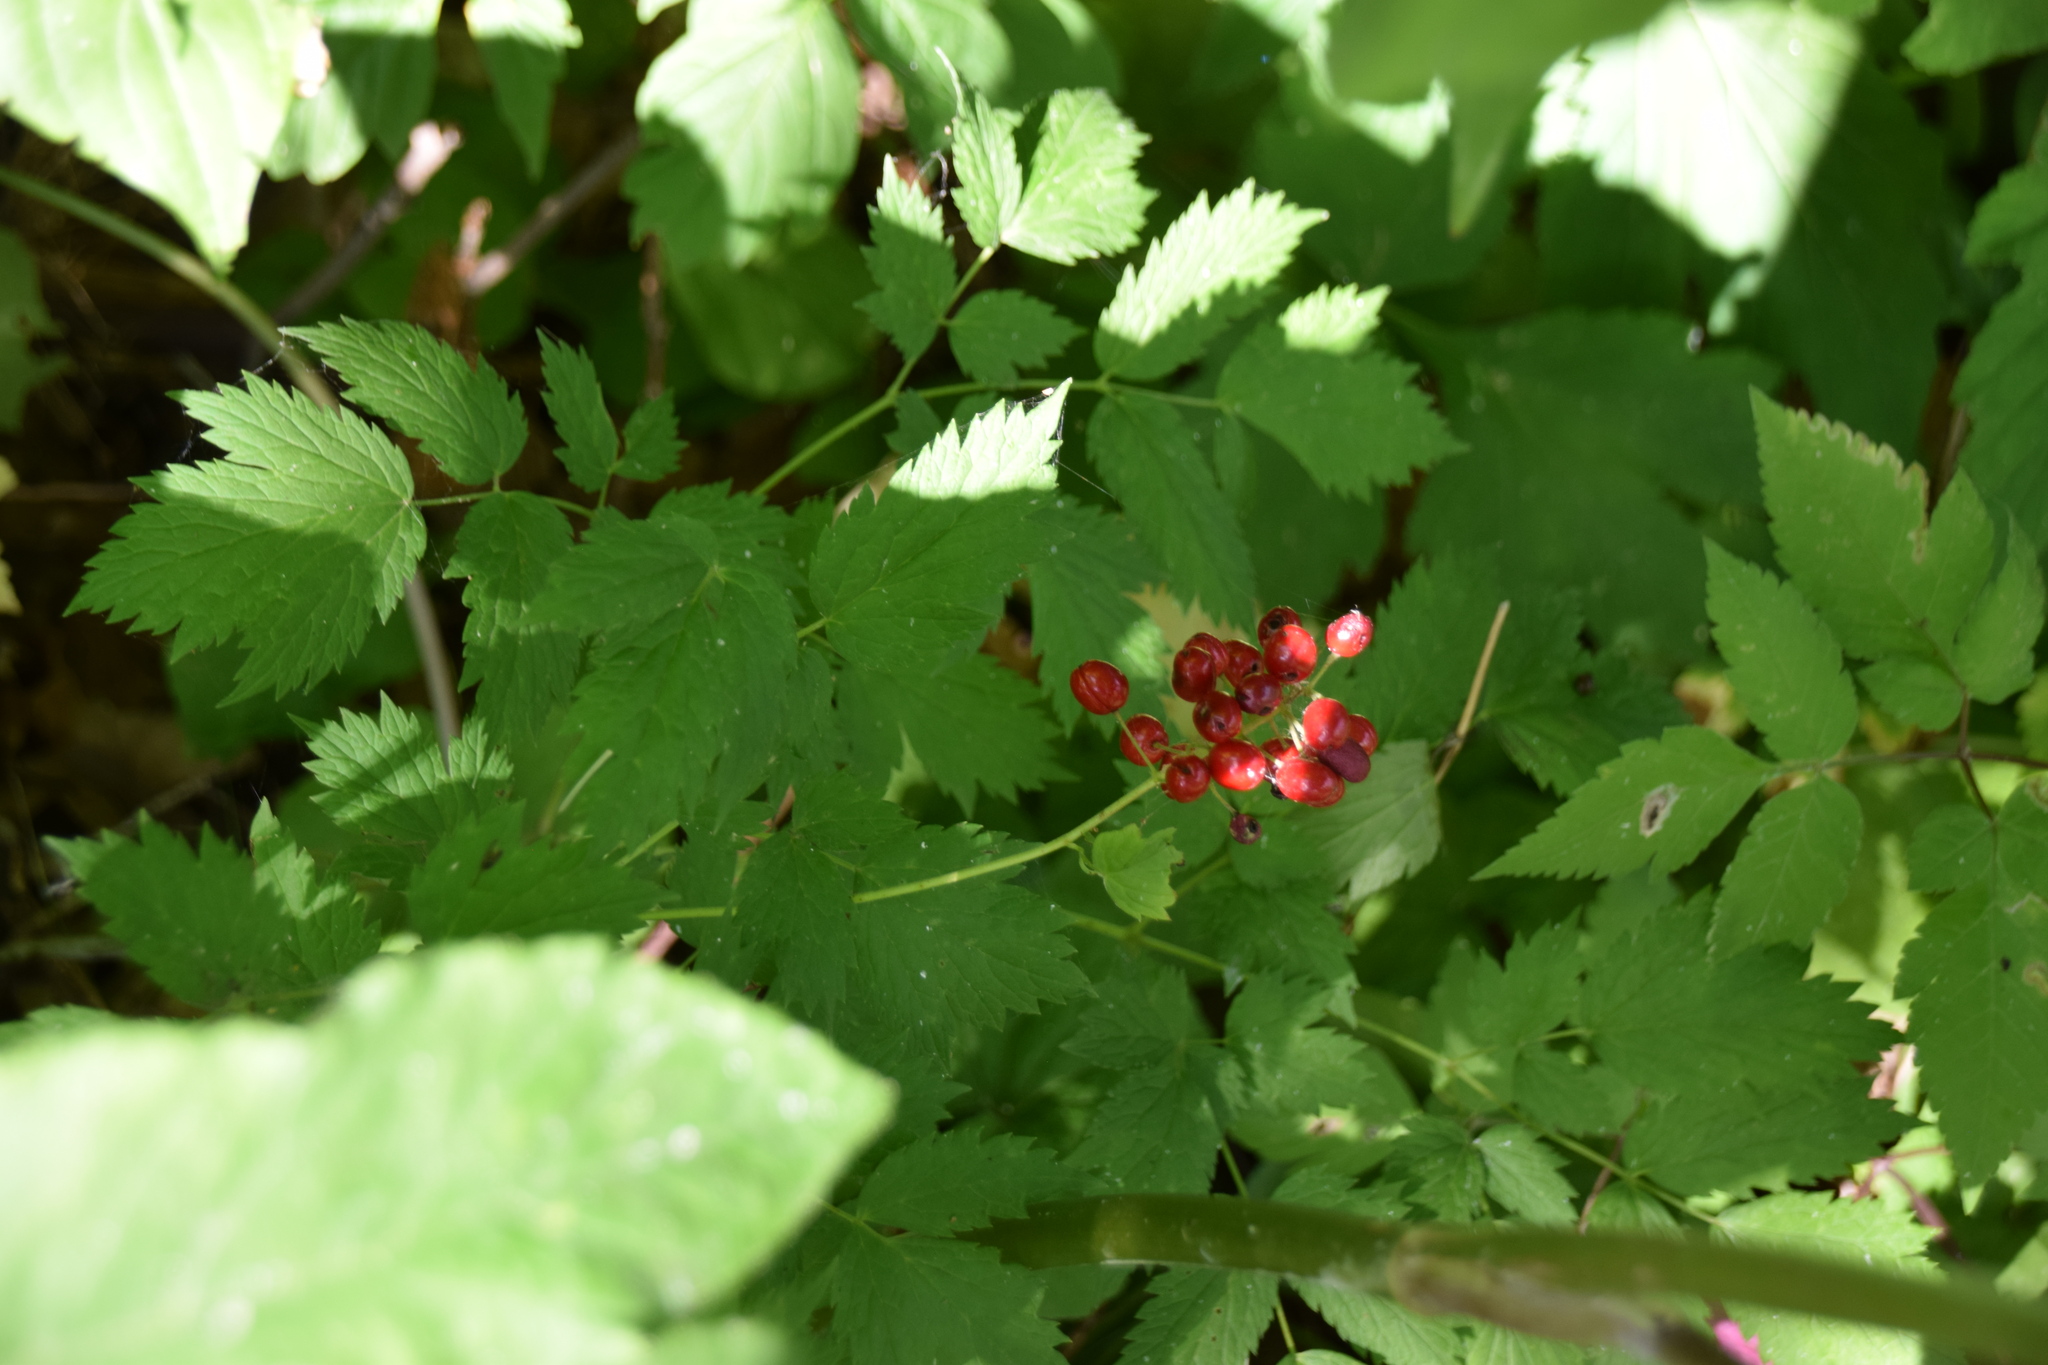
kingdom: Plantae
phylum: Tracheophyta
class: Magnoliopsida
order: Ranunculales
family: Ranunculaceae
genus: Actaea
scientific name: Actaea rubra
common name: Red baneberry
